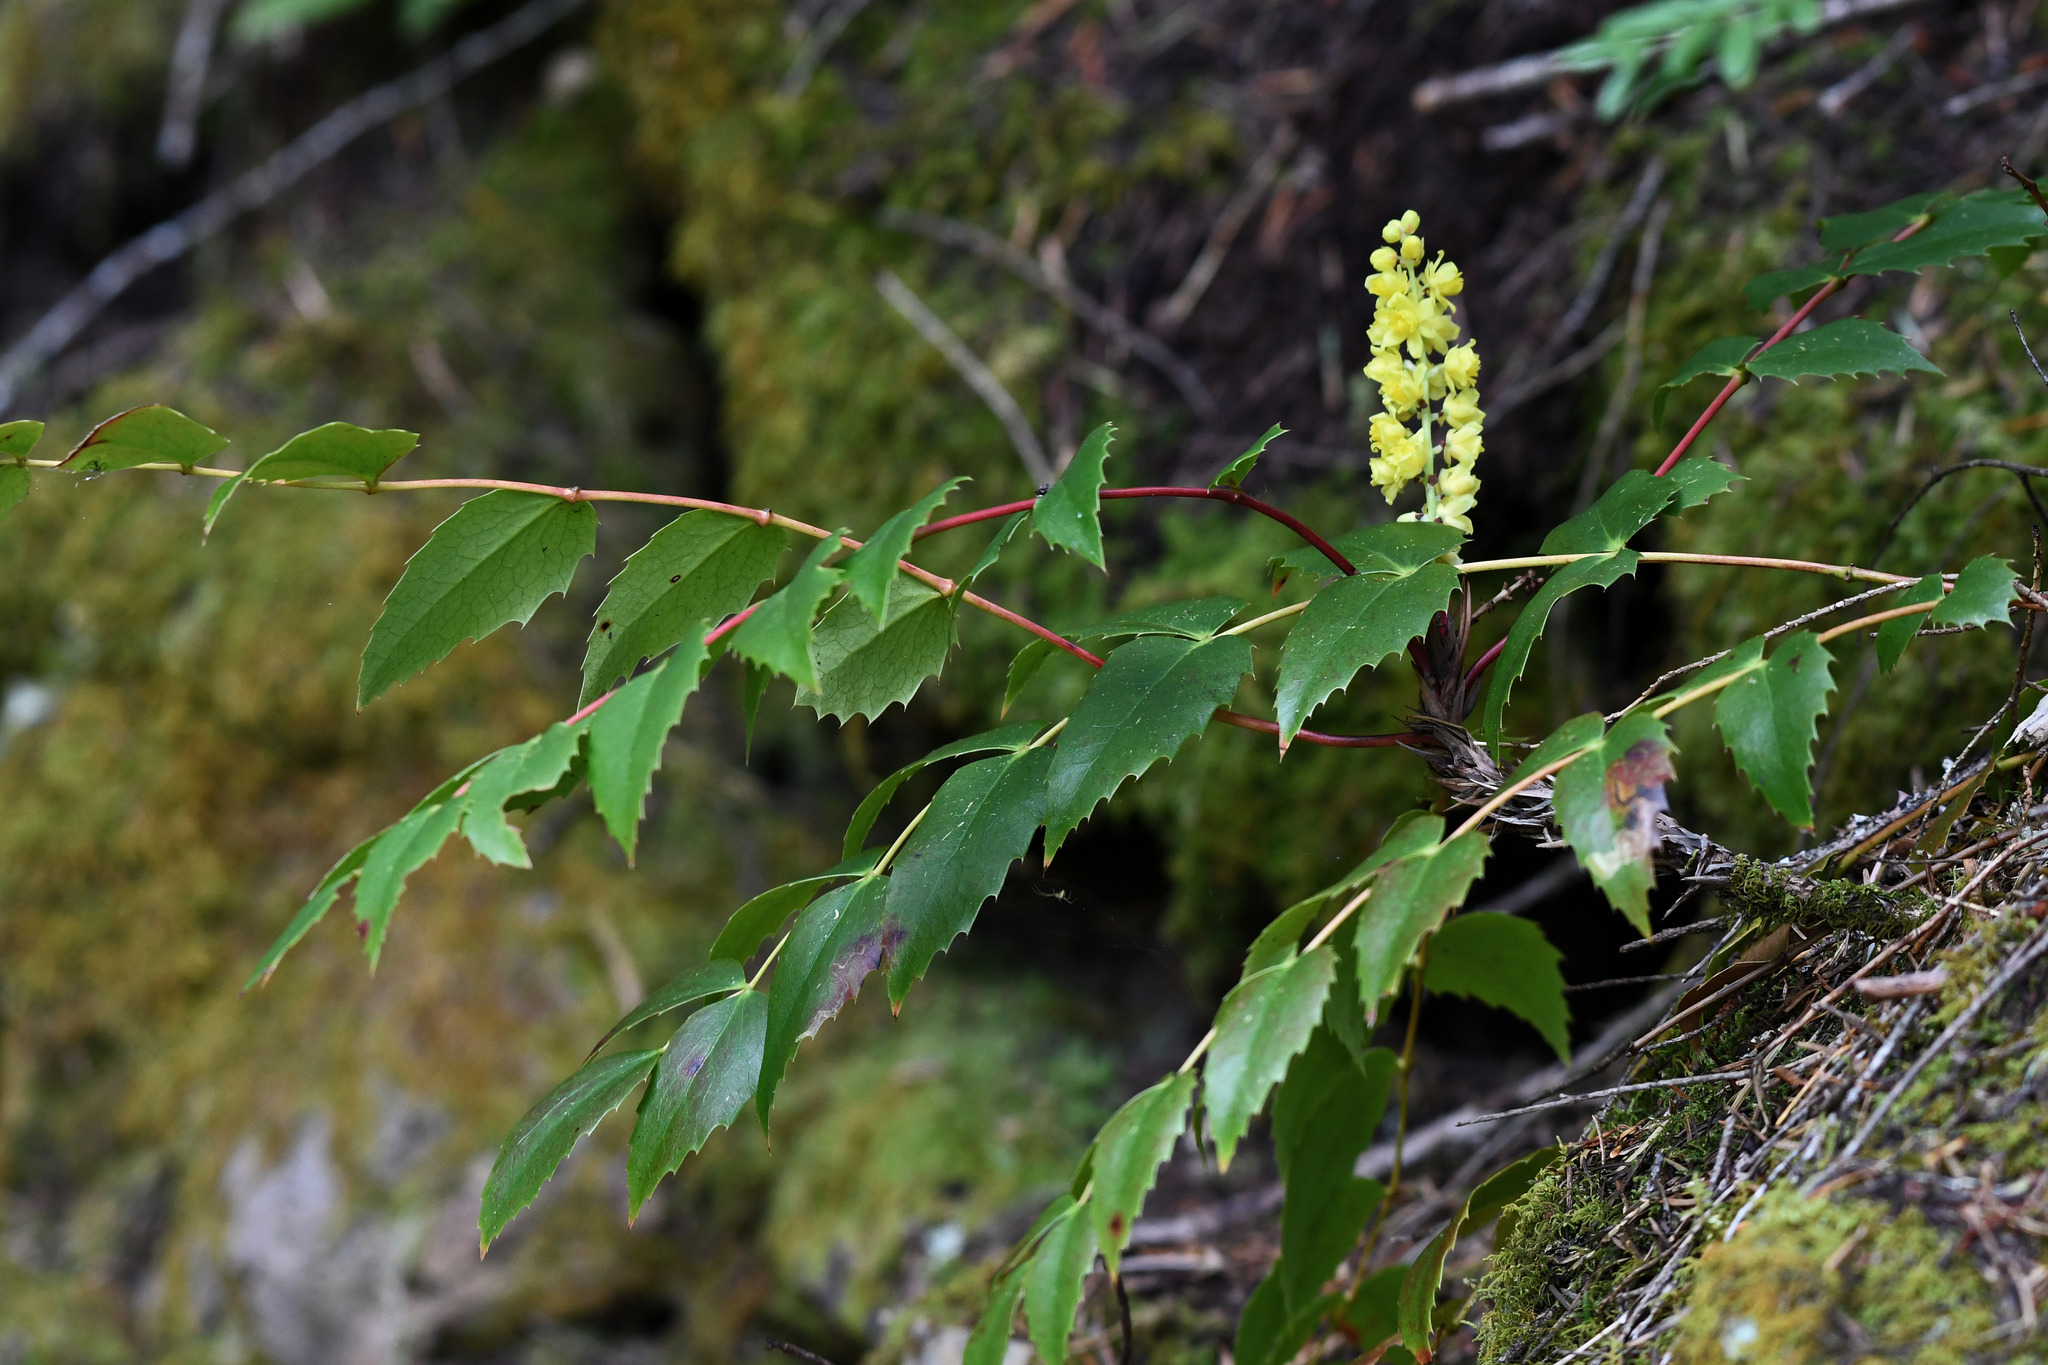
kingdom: Plantae
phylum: Tracheophyta
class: Magnoliopsida
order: Ranunculales
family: Berberidaceae
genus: Mahonia
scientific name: Mahonia nervosa
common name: Cascade oregon-grape
